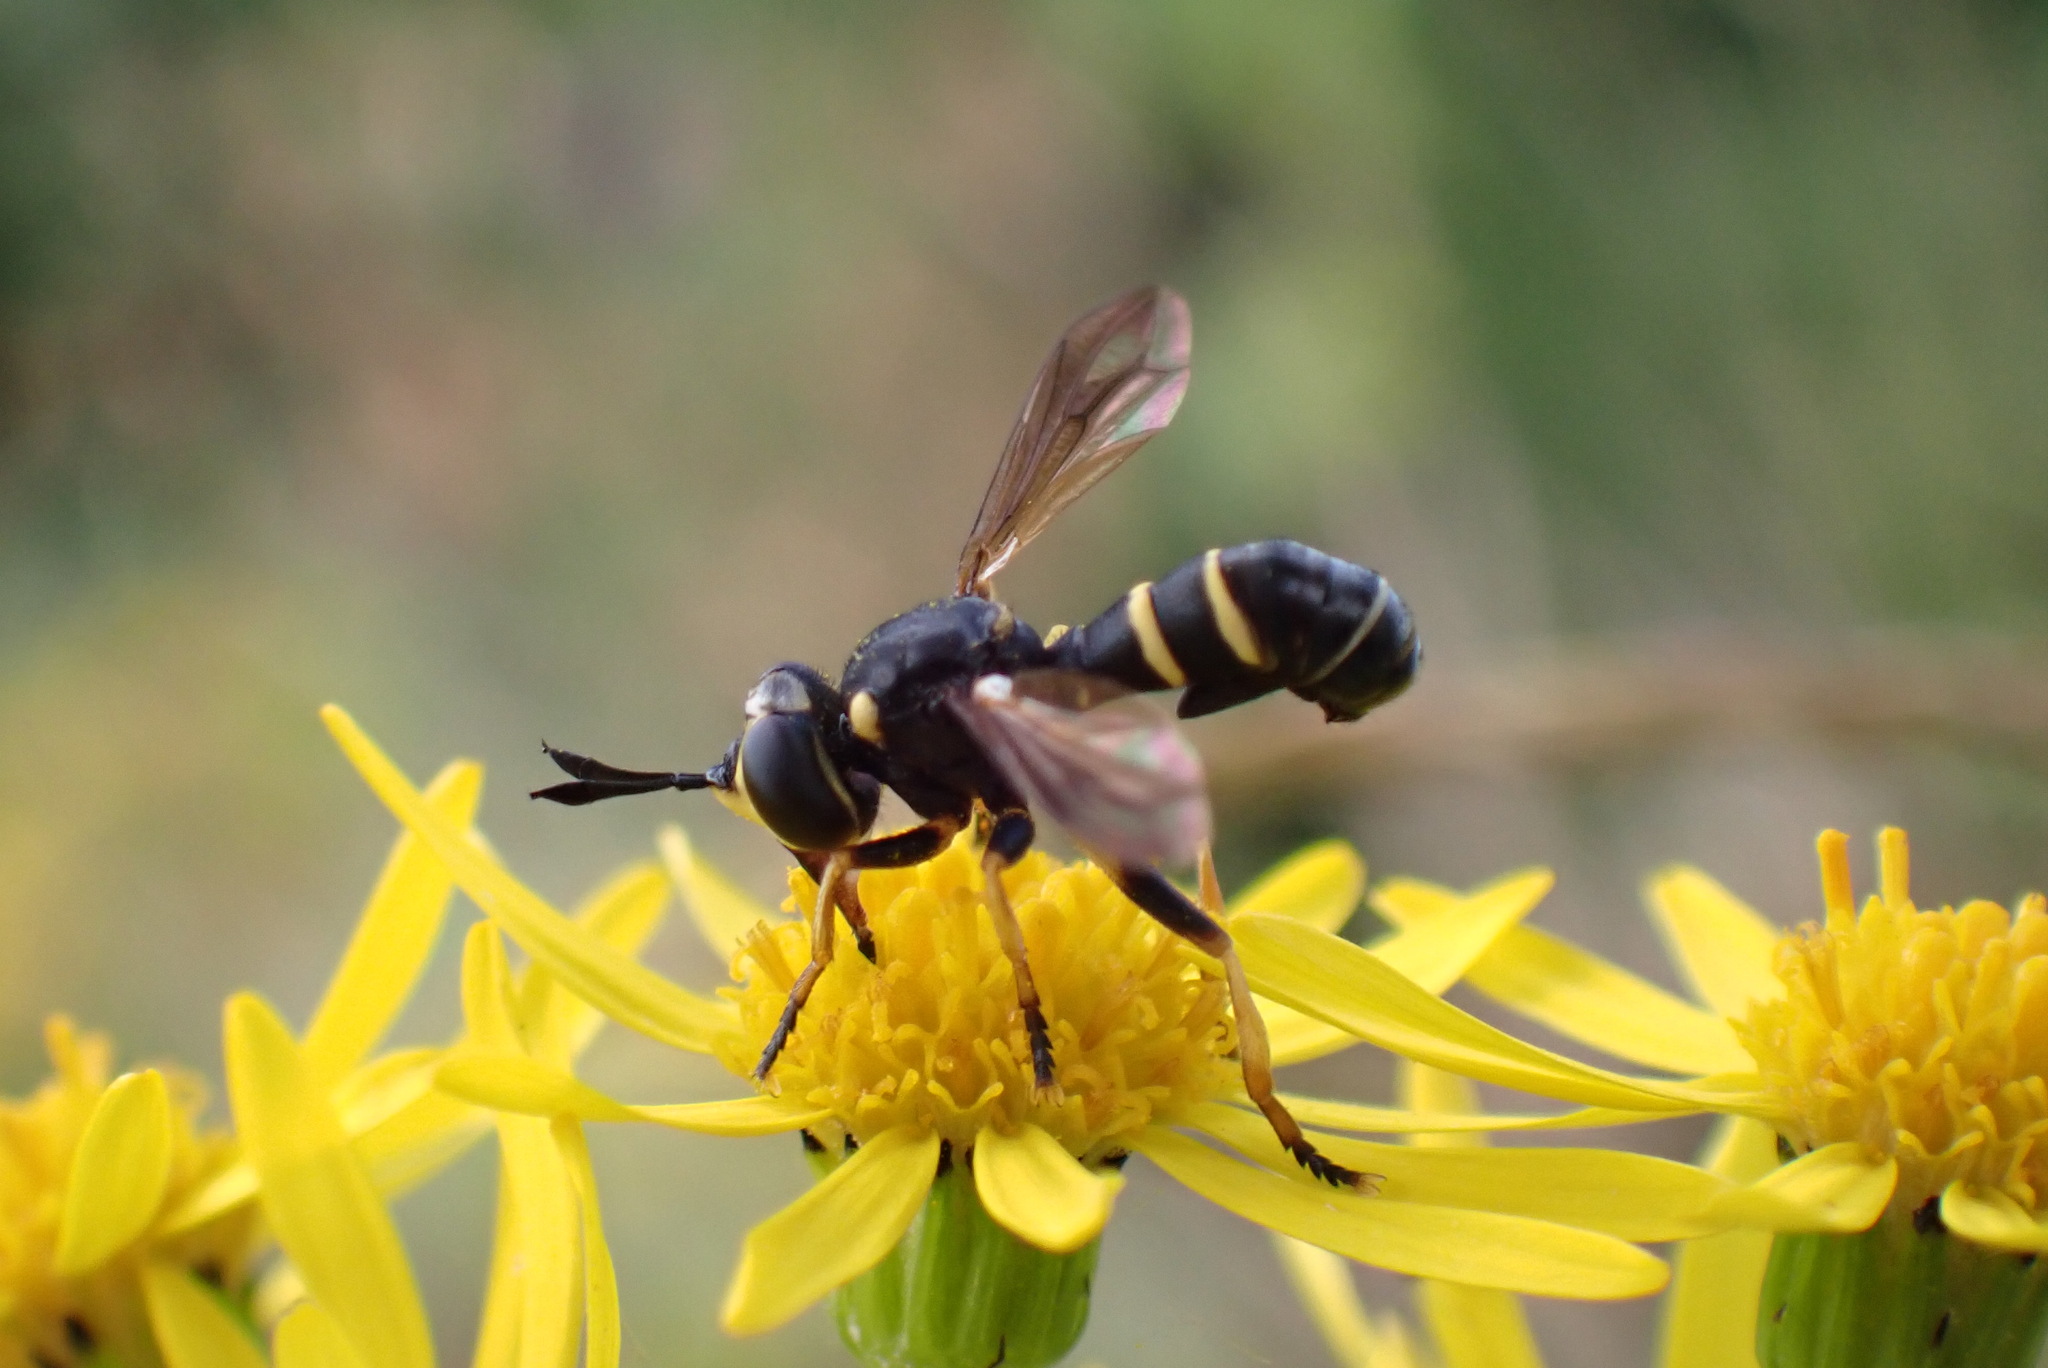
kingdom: Animalia
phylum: Arthropoda
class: Insecta
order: Diptera
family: Conopidae
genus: Conops
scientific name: Conops flavipes
